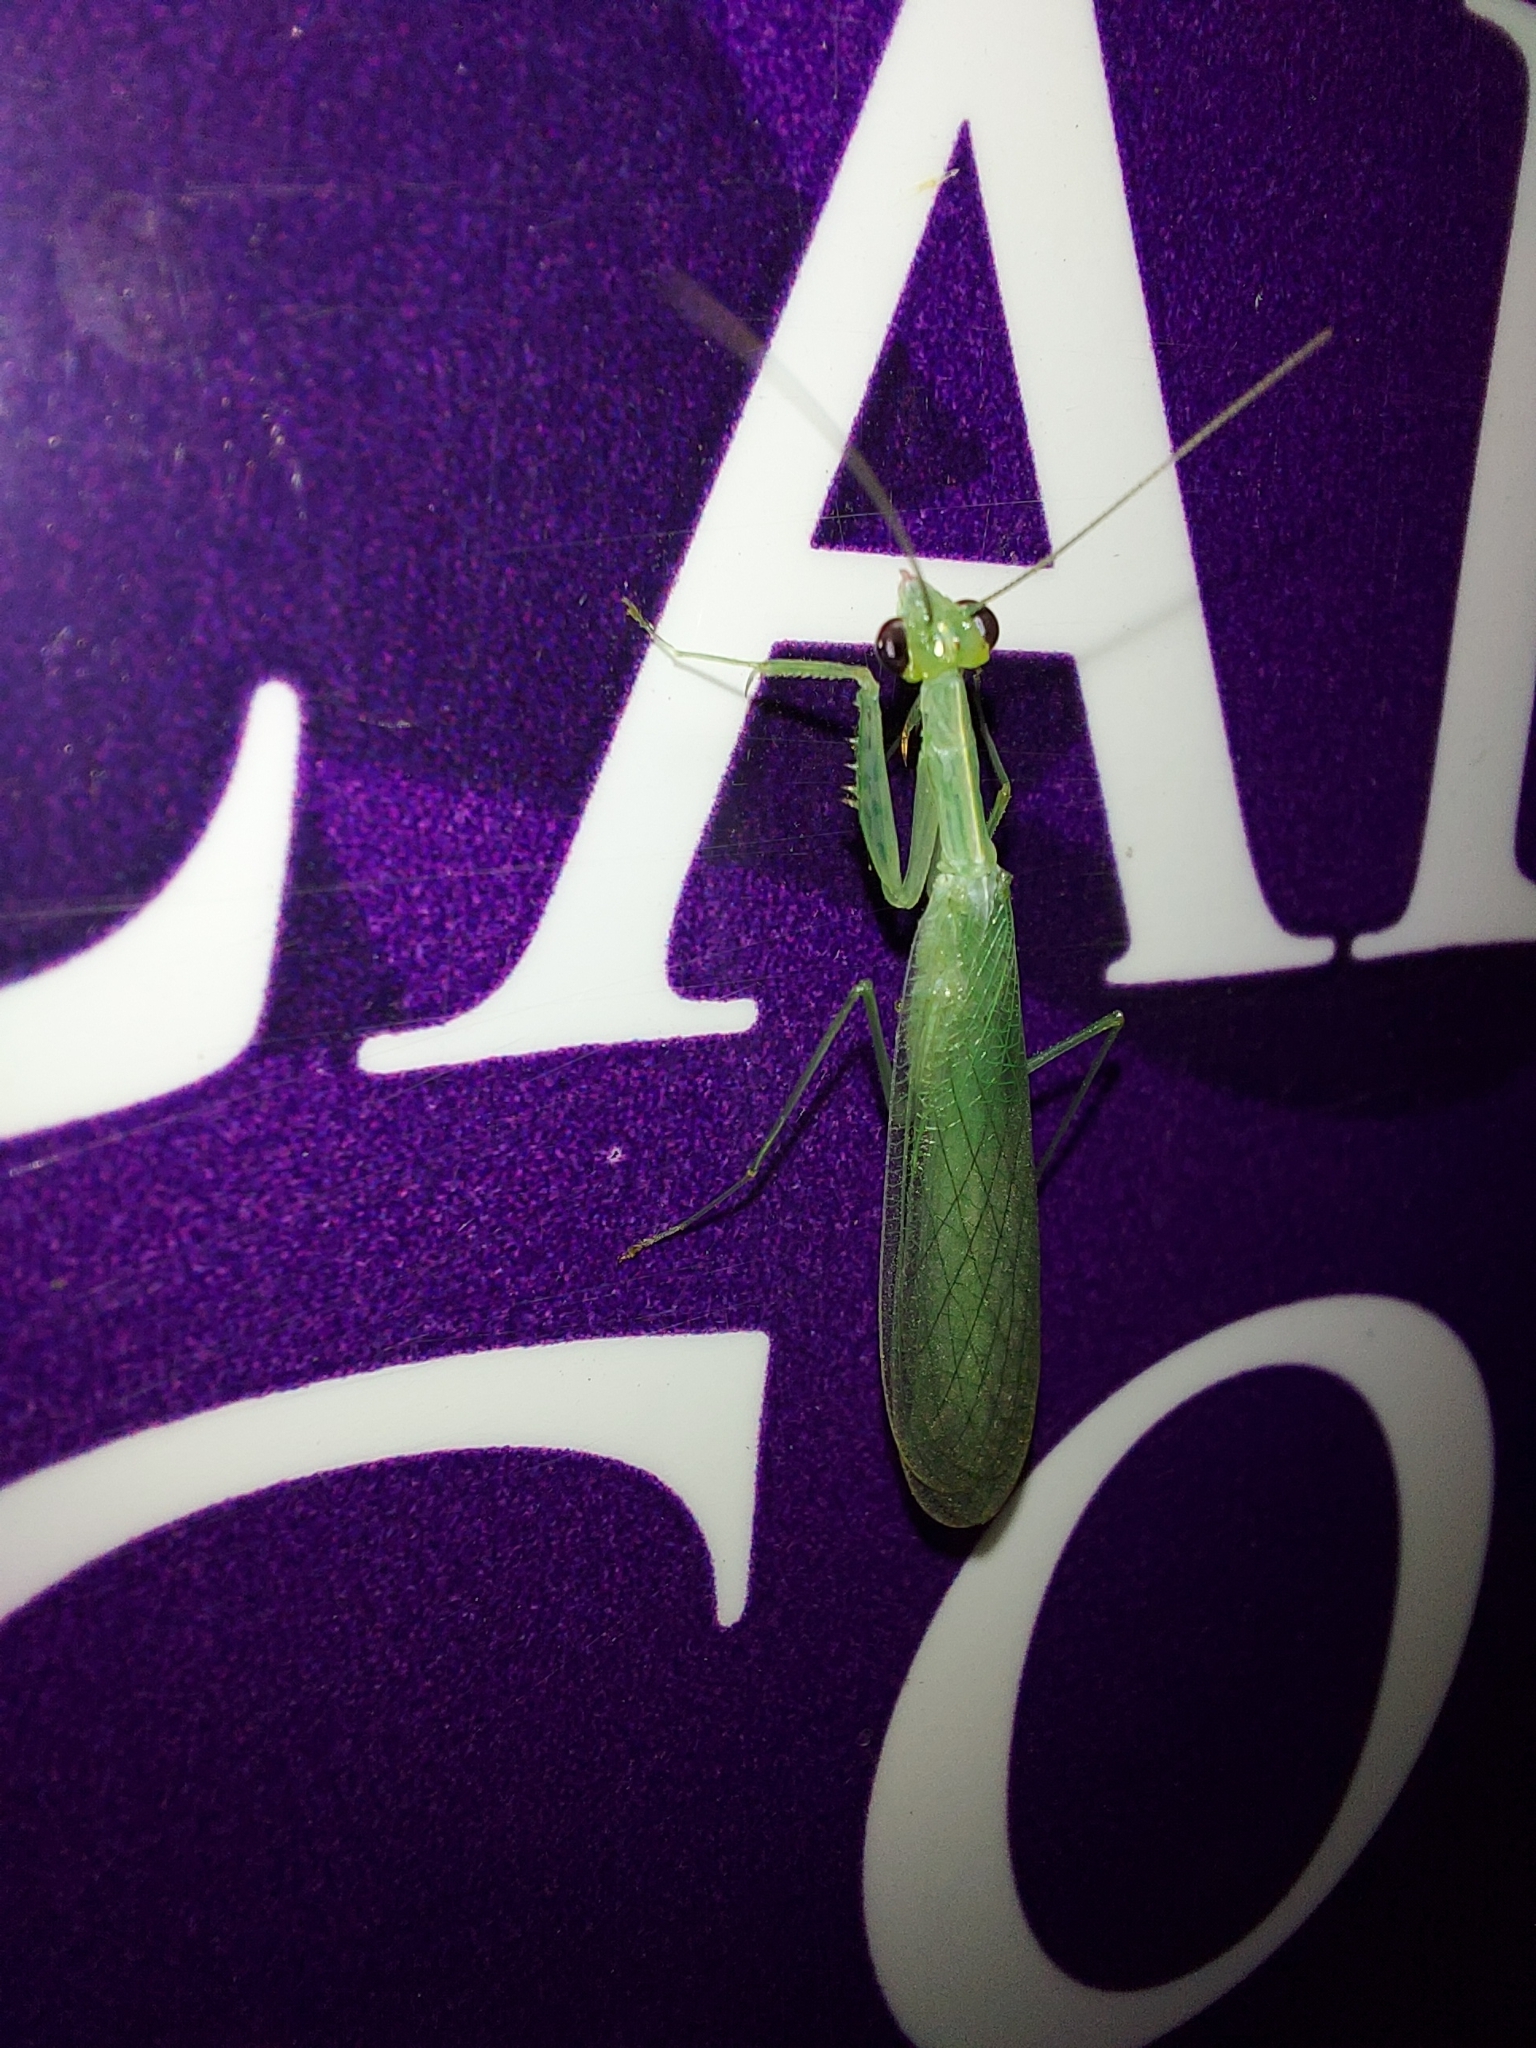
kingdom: Animalia
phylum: Arthropoda
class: Insecta
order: Mantodea
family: Nanomantidae
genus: Kongobatha
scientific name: Kongobatha diademata
